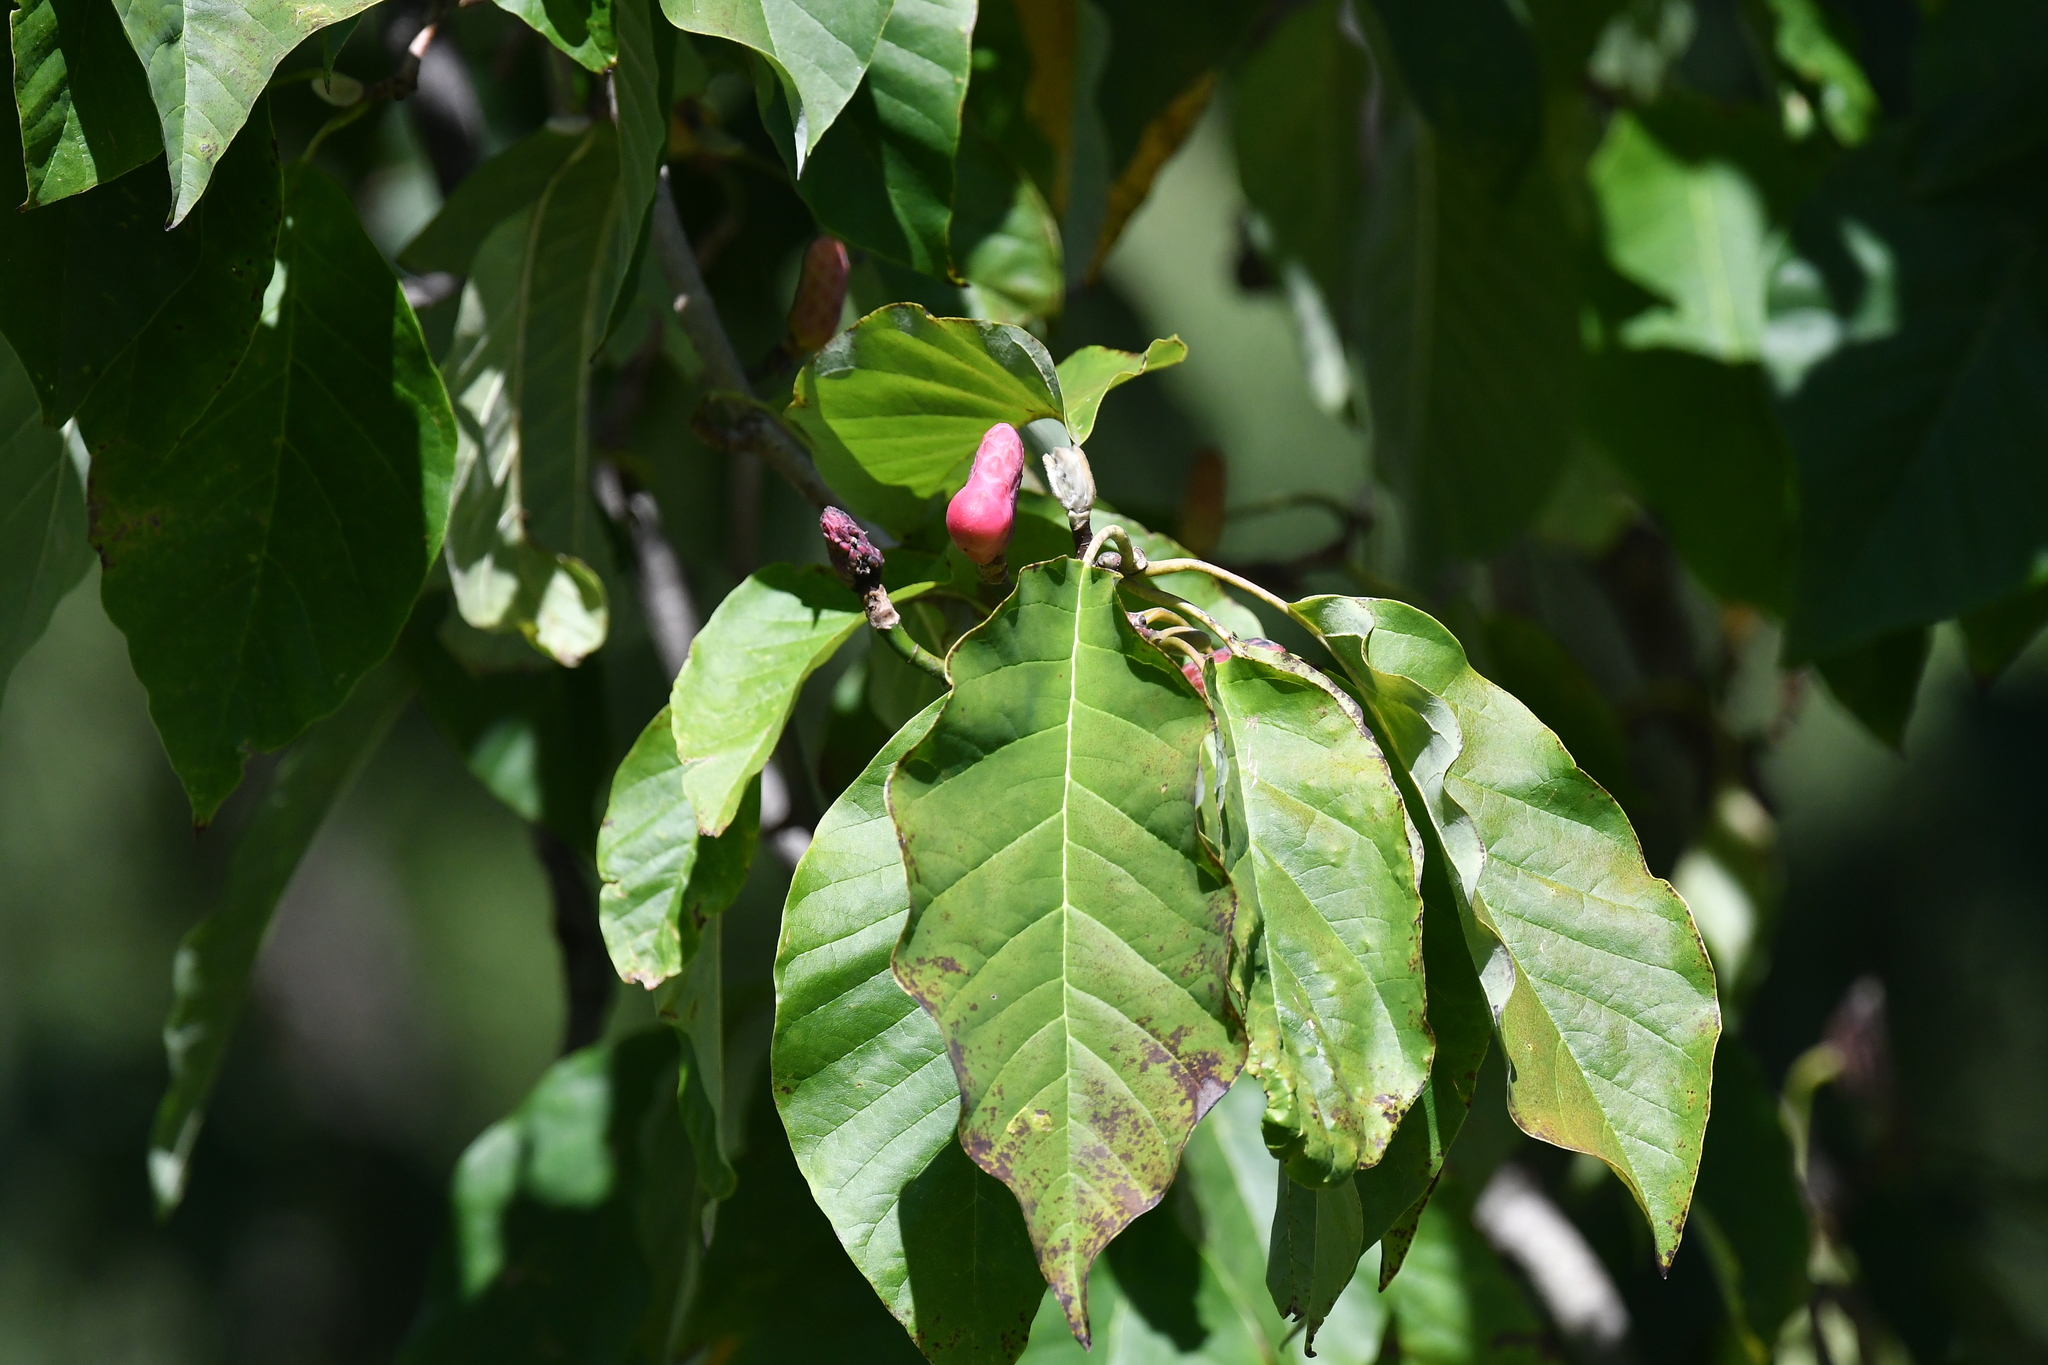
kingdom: Plantae
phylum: Tracheophyta
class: Magnoliopsida
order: Magnoliales
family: Magnoliaceae
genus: Magnolia
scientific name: Magnolia acuminata
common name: Cucumber magnolia
